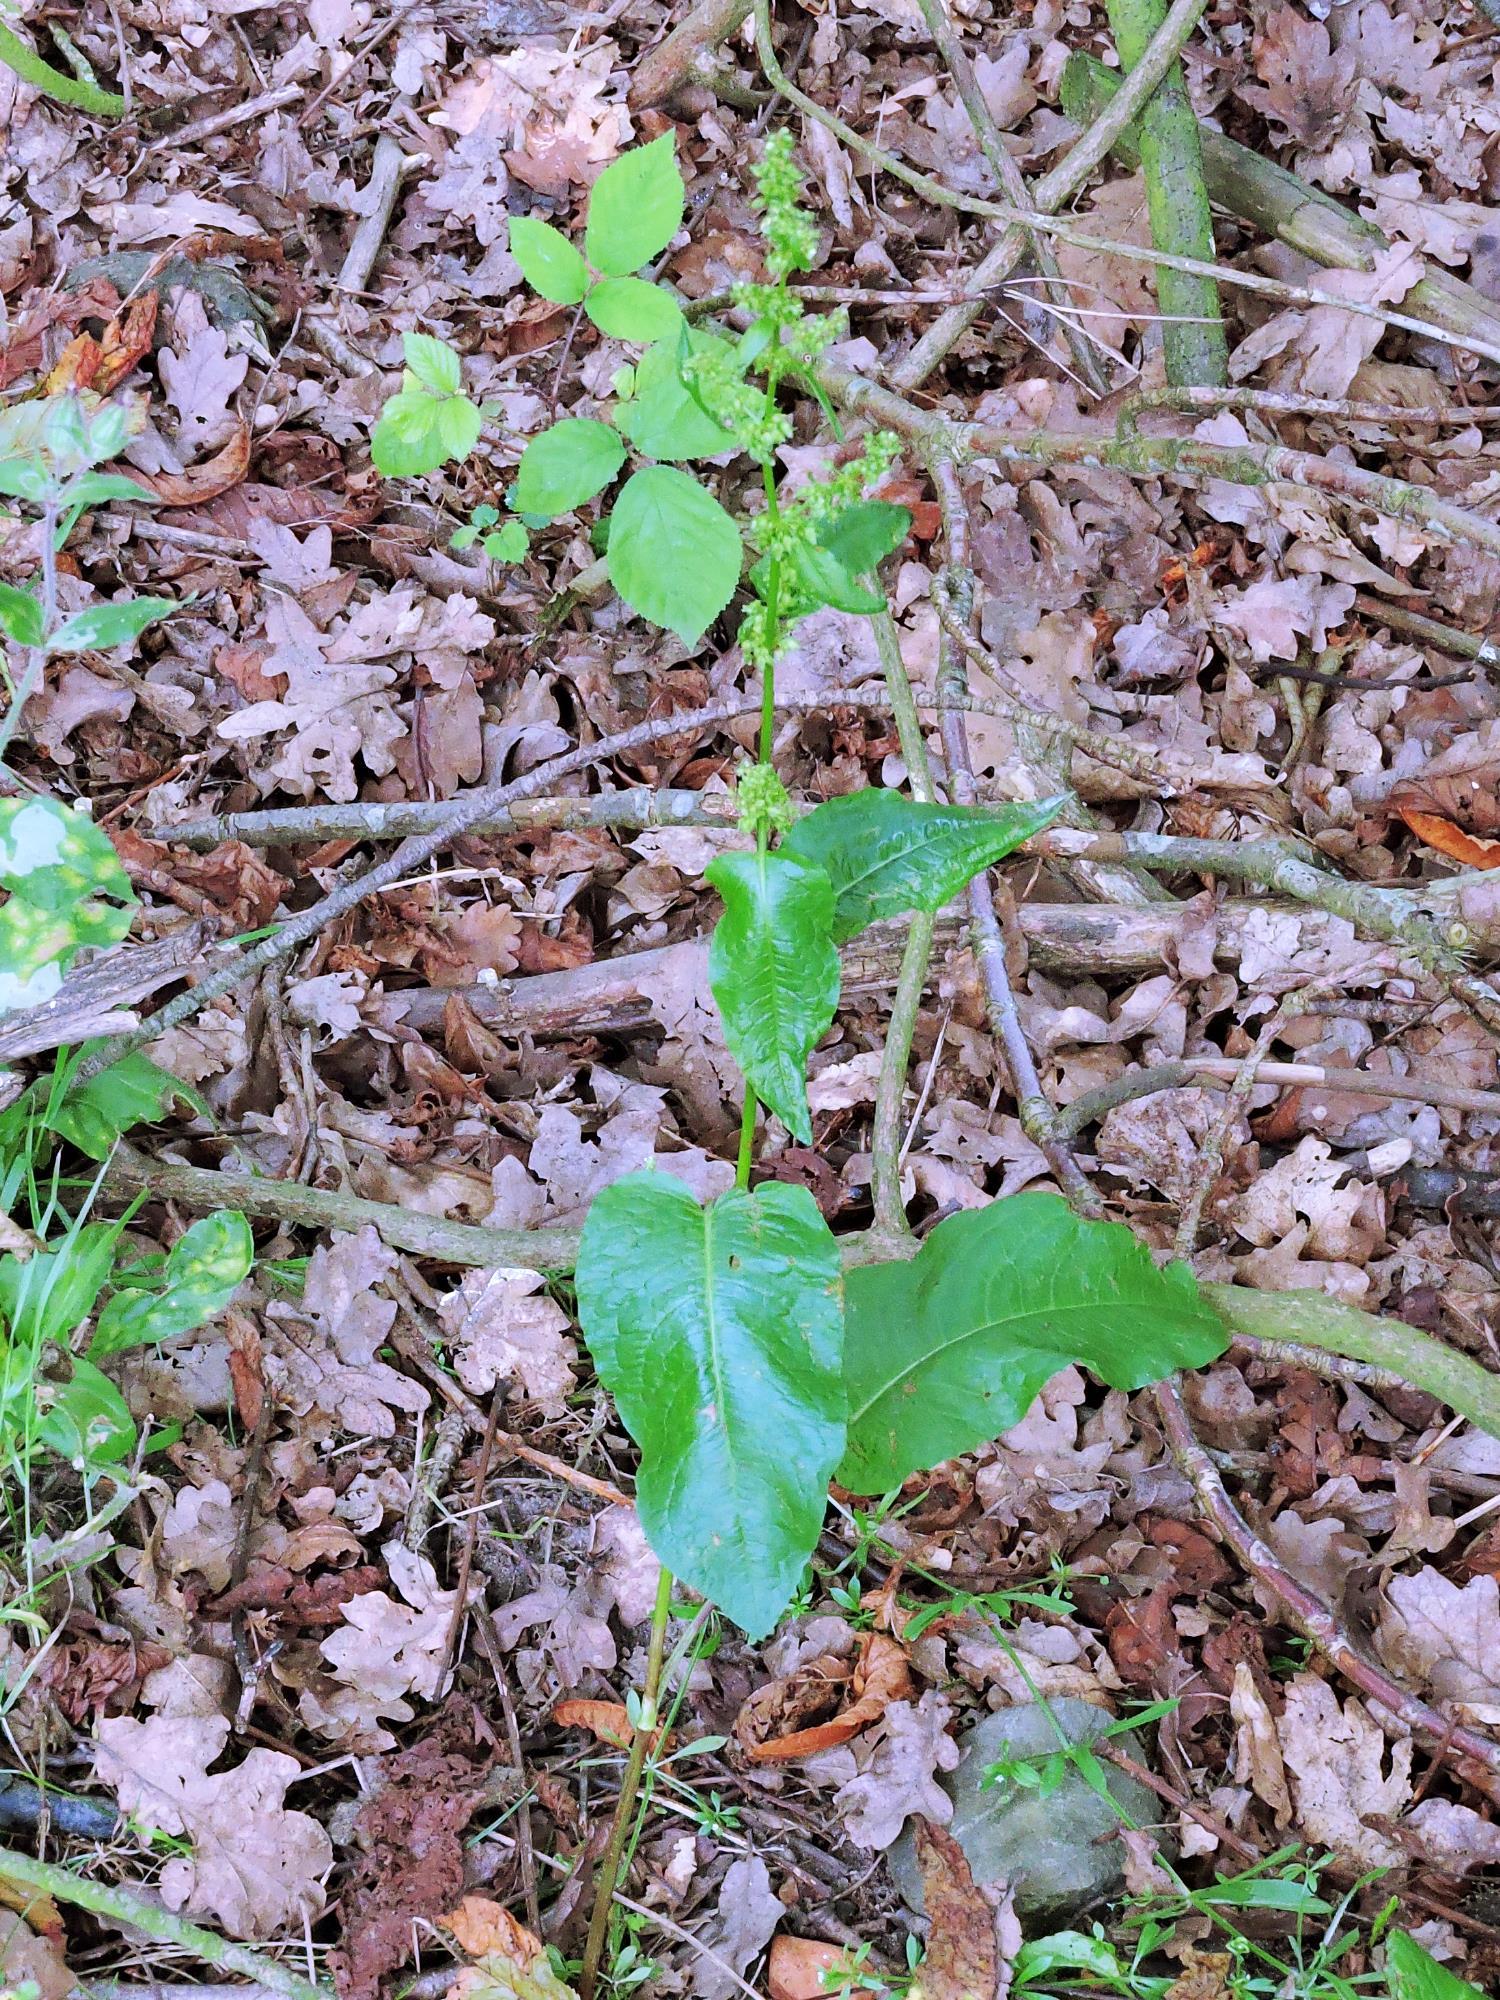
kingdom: Plantae
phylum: Tracheophyta
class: Magnoliopsida
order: Caryophyllales
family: Polygonaceae
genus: Rumex
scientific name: Rumex sanguineus
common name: Wood dock
